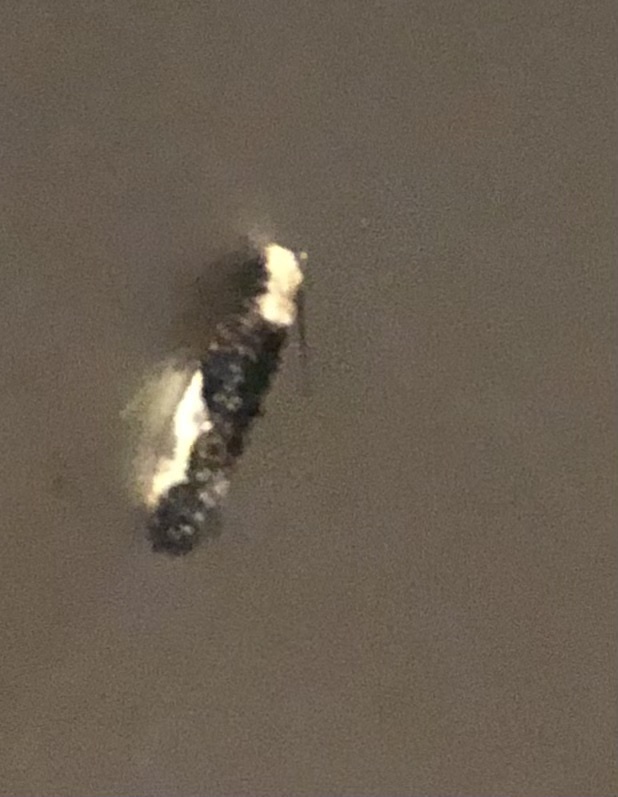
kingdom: Animalia
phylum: Arthropoda
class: Insecta
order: Lepidoptera
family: Tineidae
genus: Monopis
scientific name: Monopis longella
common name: Pavlovski's monopis moth
